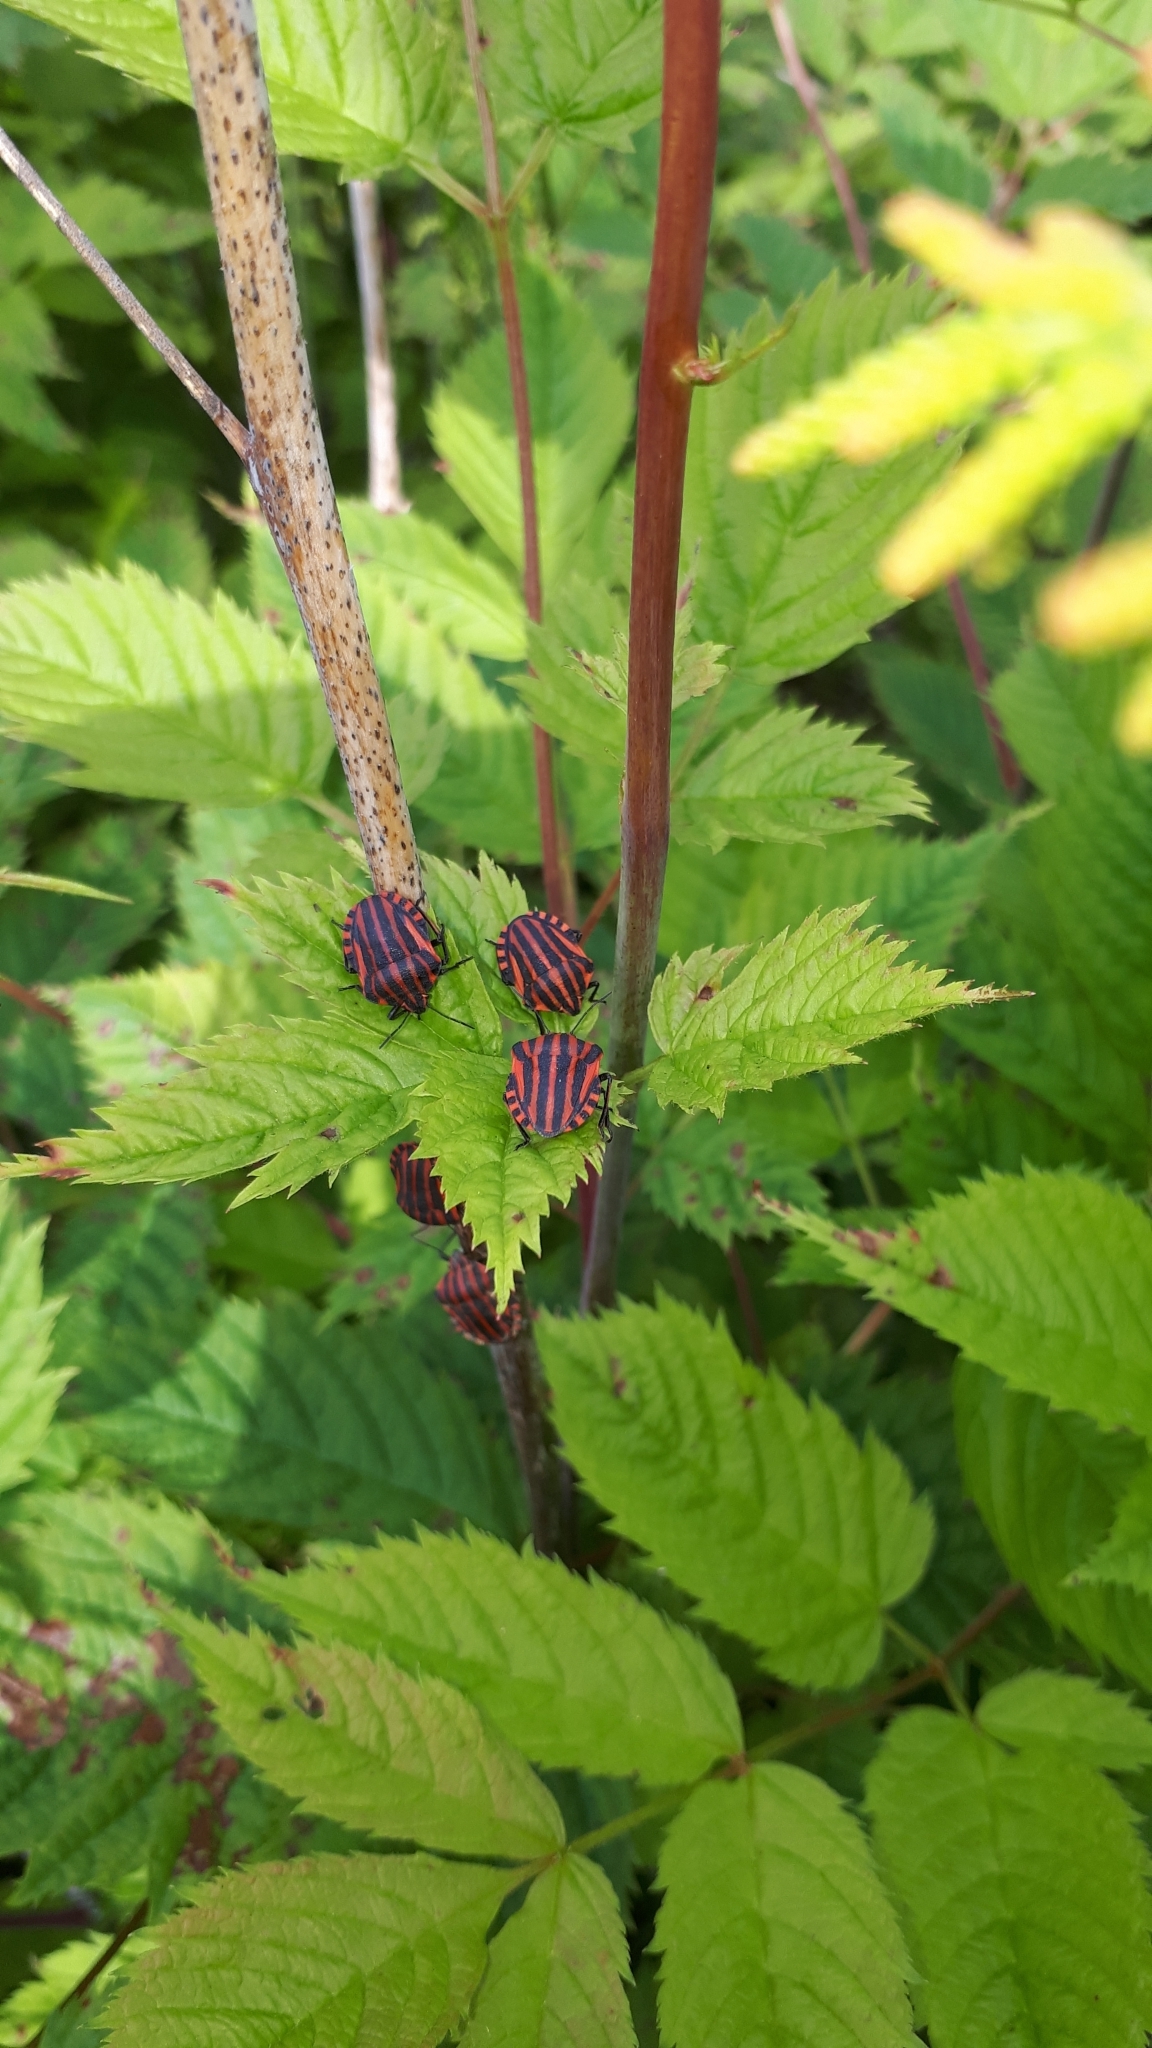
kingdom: Animalia
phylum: Arthropoda
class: Insecta
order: Hemiptera
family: Pentatomidae
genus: Graphosoma
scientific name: Graphosoma italicum
